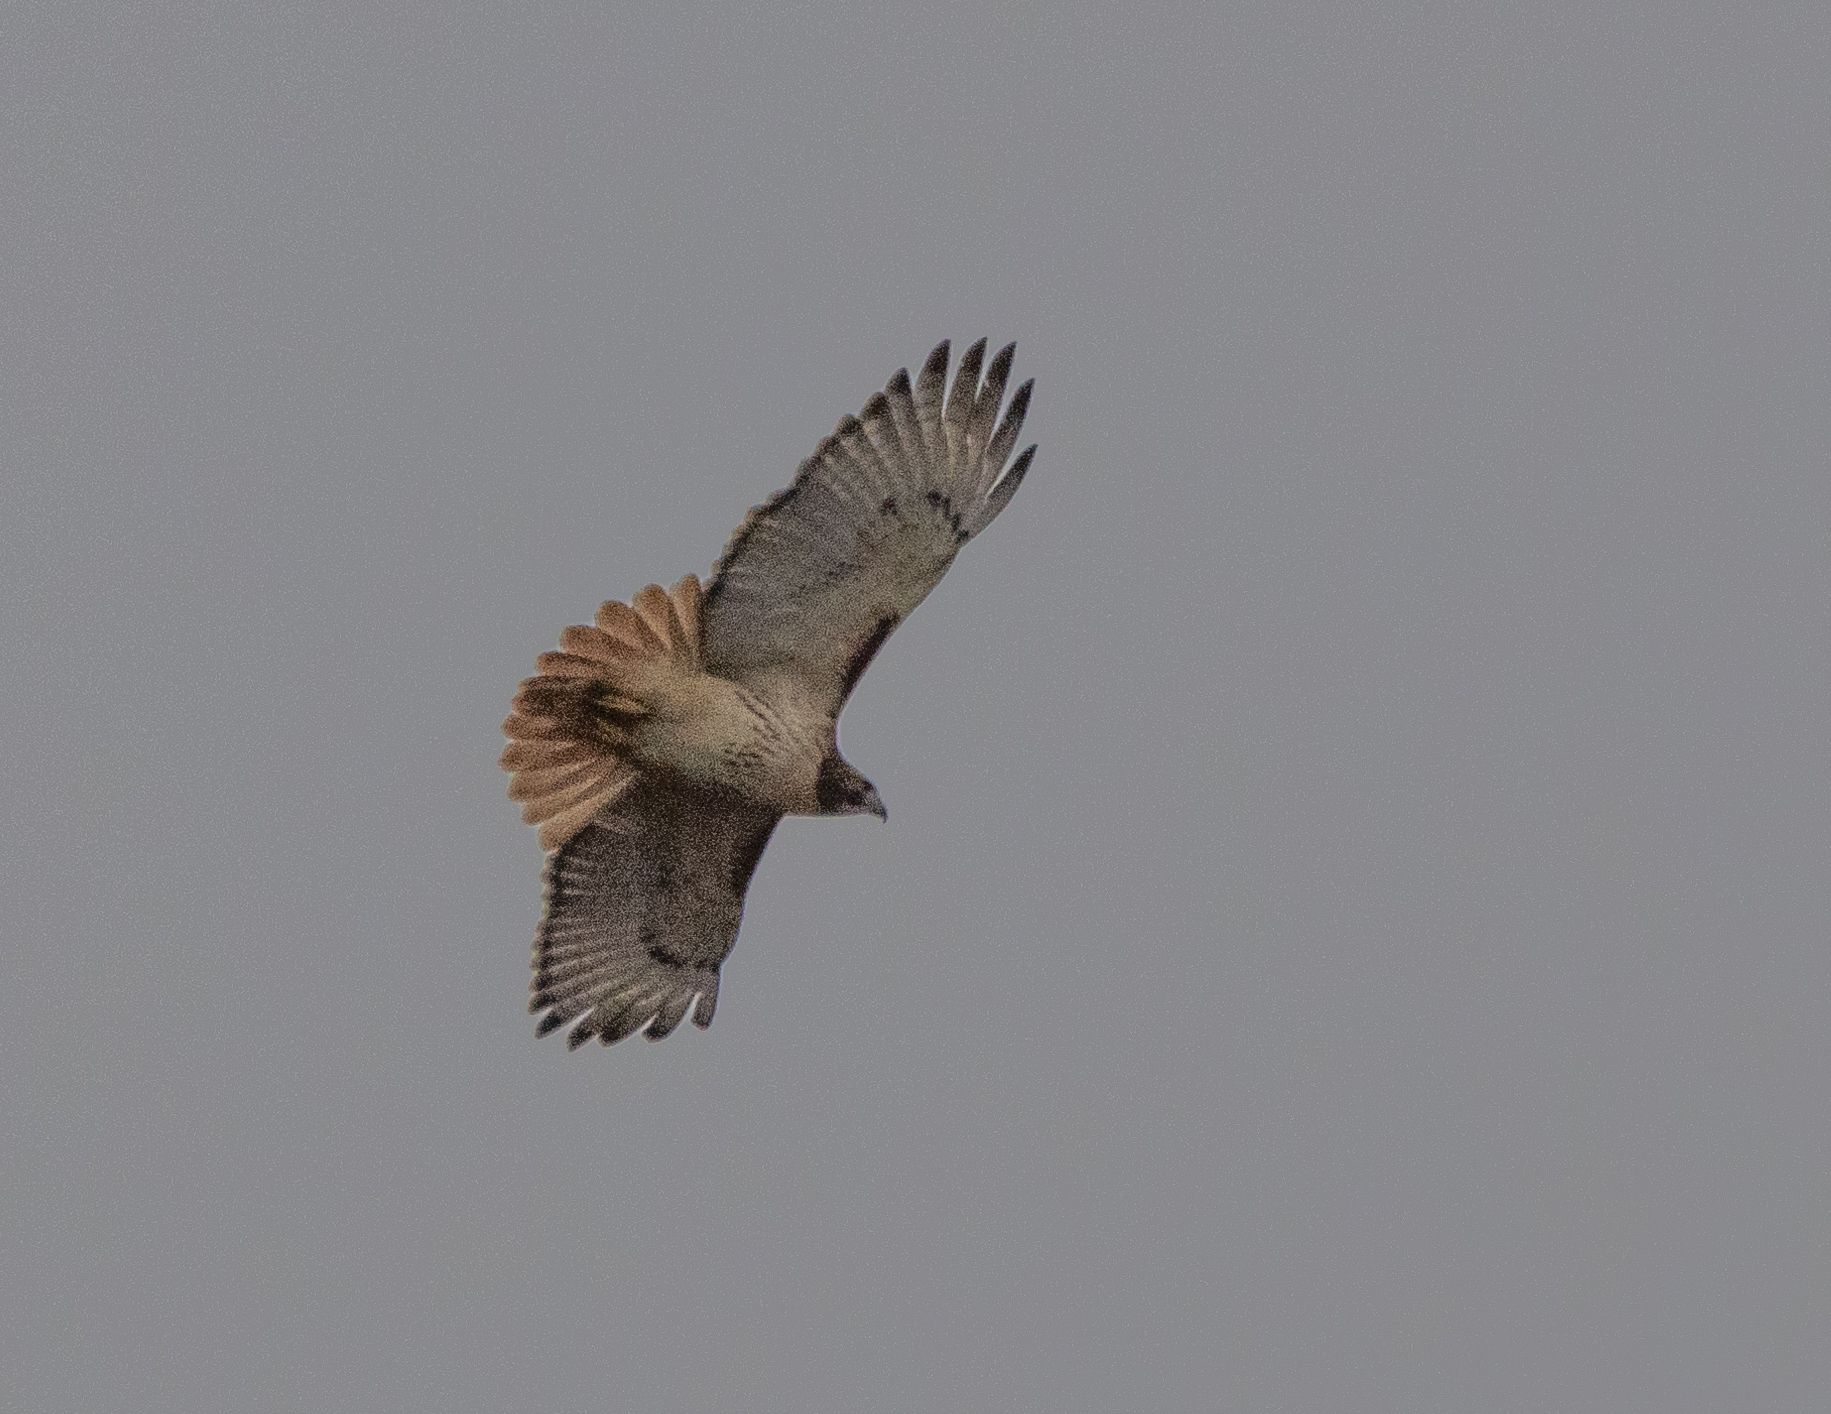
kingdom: Animalia
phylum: Chordata
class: Aves
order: Accipitriformes
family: Accipitridae
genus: Buteo
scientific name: Buteo jamaicensis
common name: Red-tailed hawk
